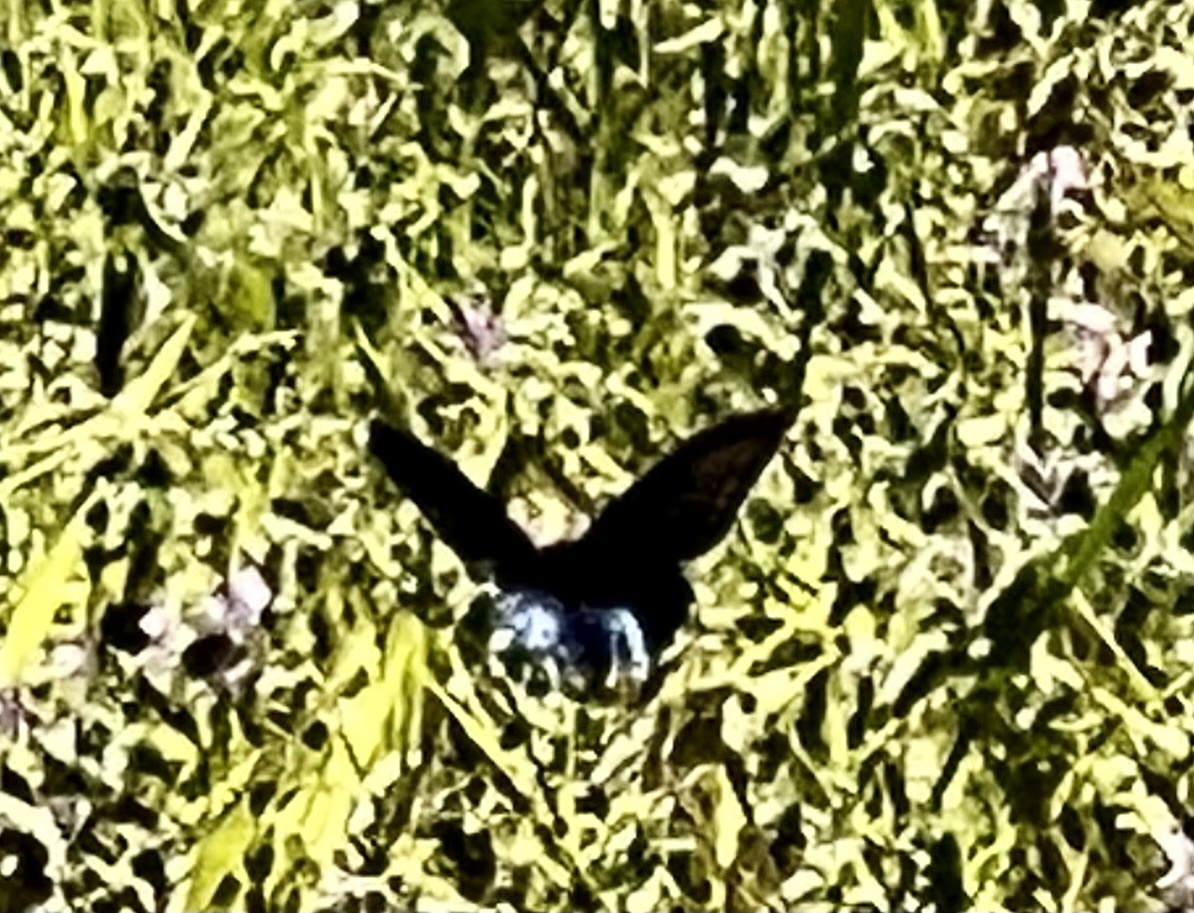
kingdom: Animalia
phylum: Arthropoda
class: Insecta
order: Lepidoptera
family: Papilionidae
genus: Battus
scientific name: Battus philenor
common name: Pipevine swallowtail
